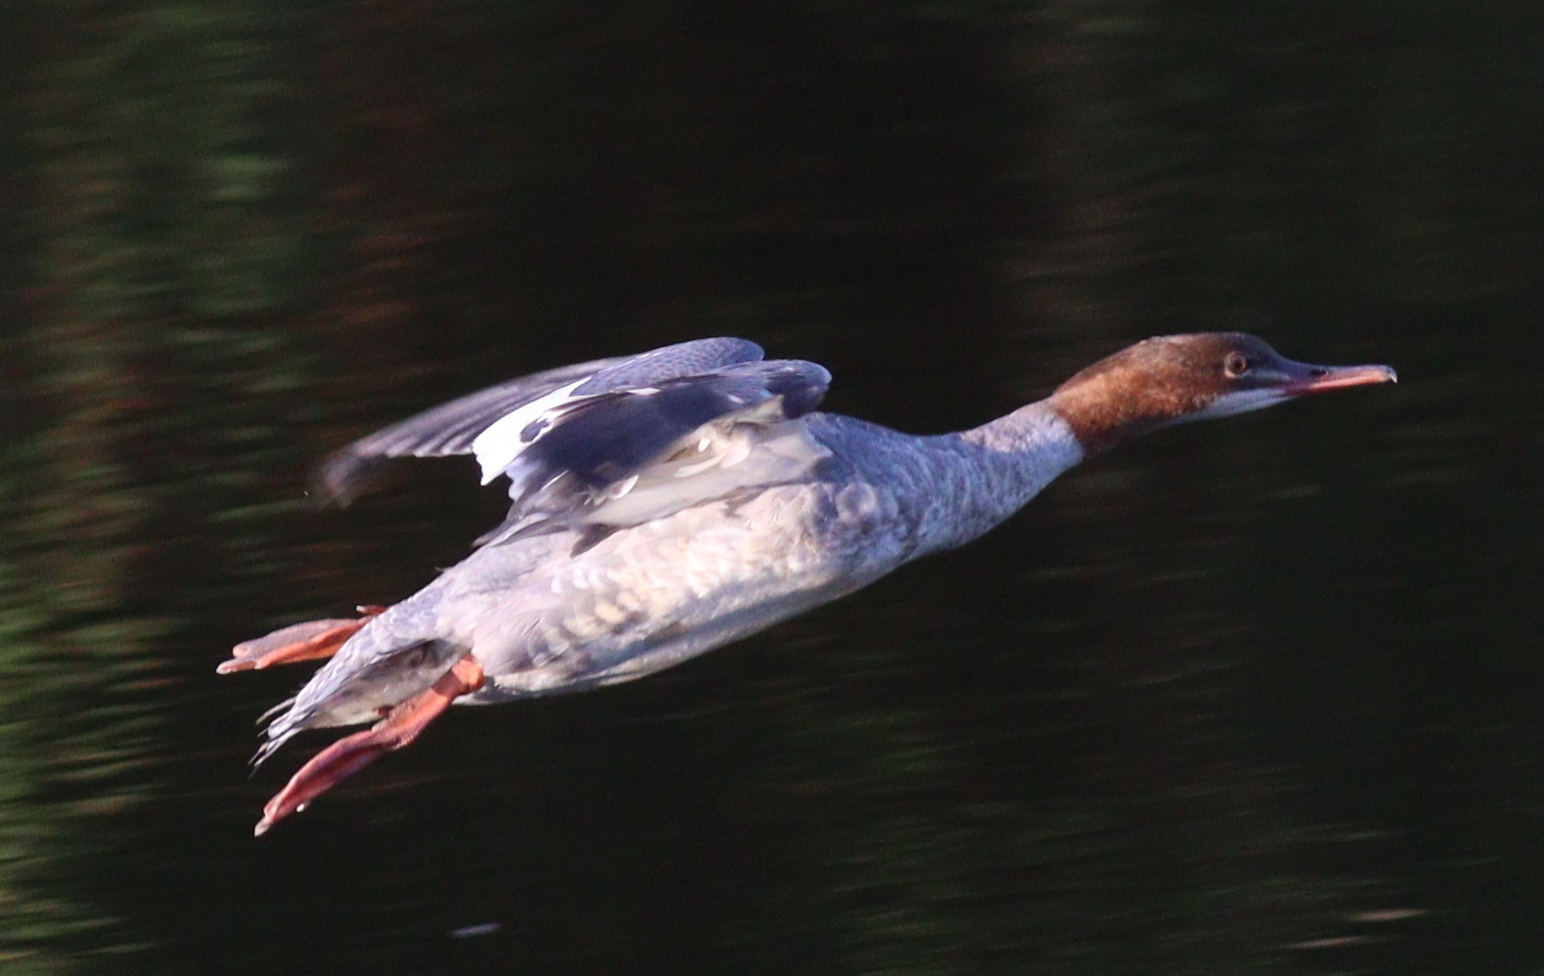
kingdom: Animalia
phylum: Chordata
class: Aves
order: Anseriformes
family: Anatidae
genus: Mergus
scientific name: Mergus merganser
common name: Common merganser
